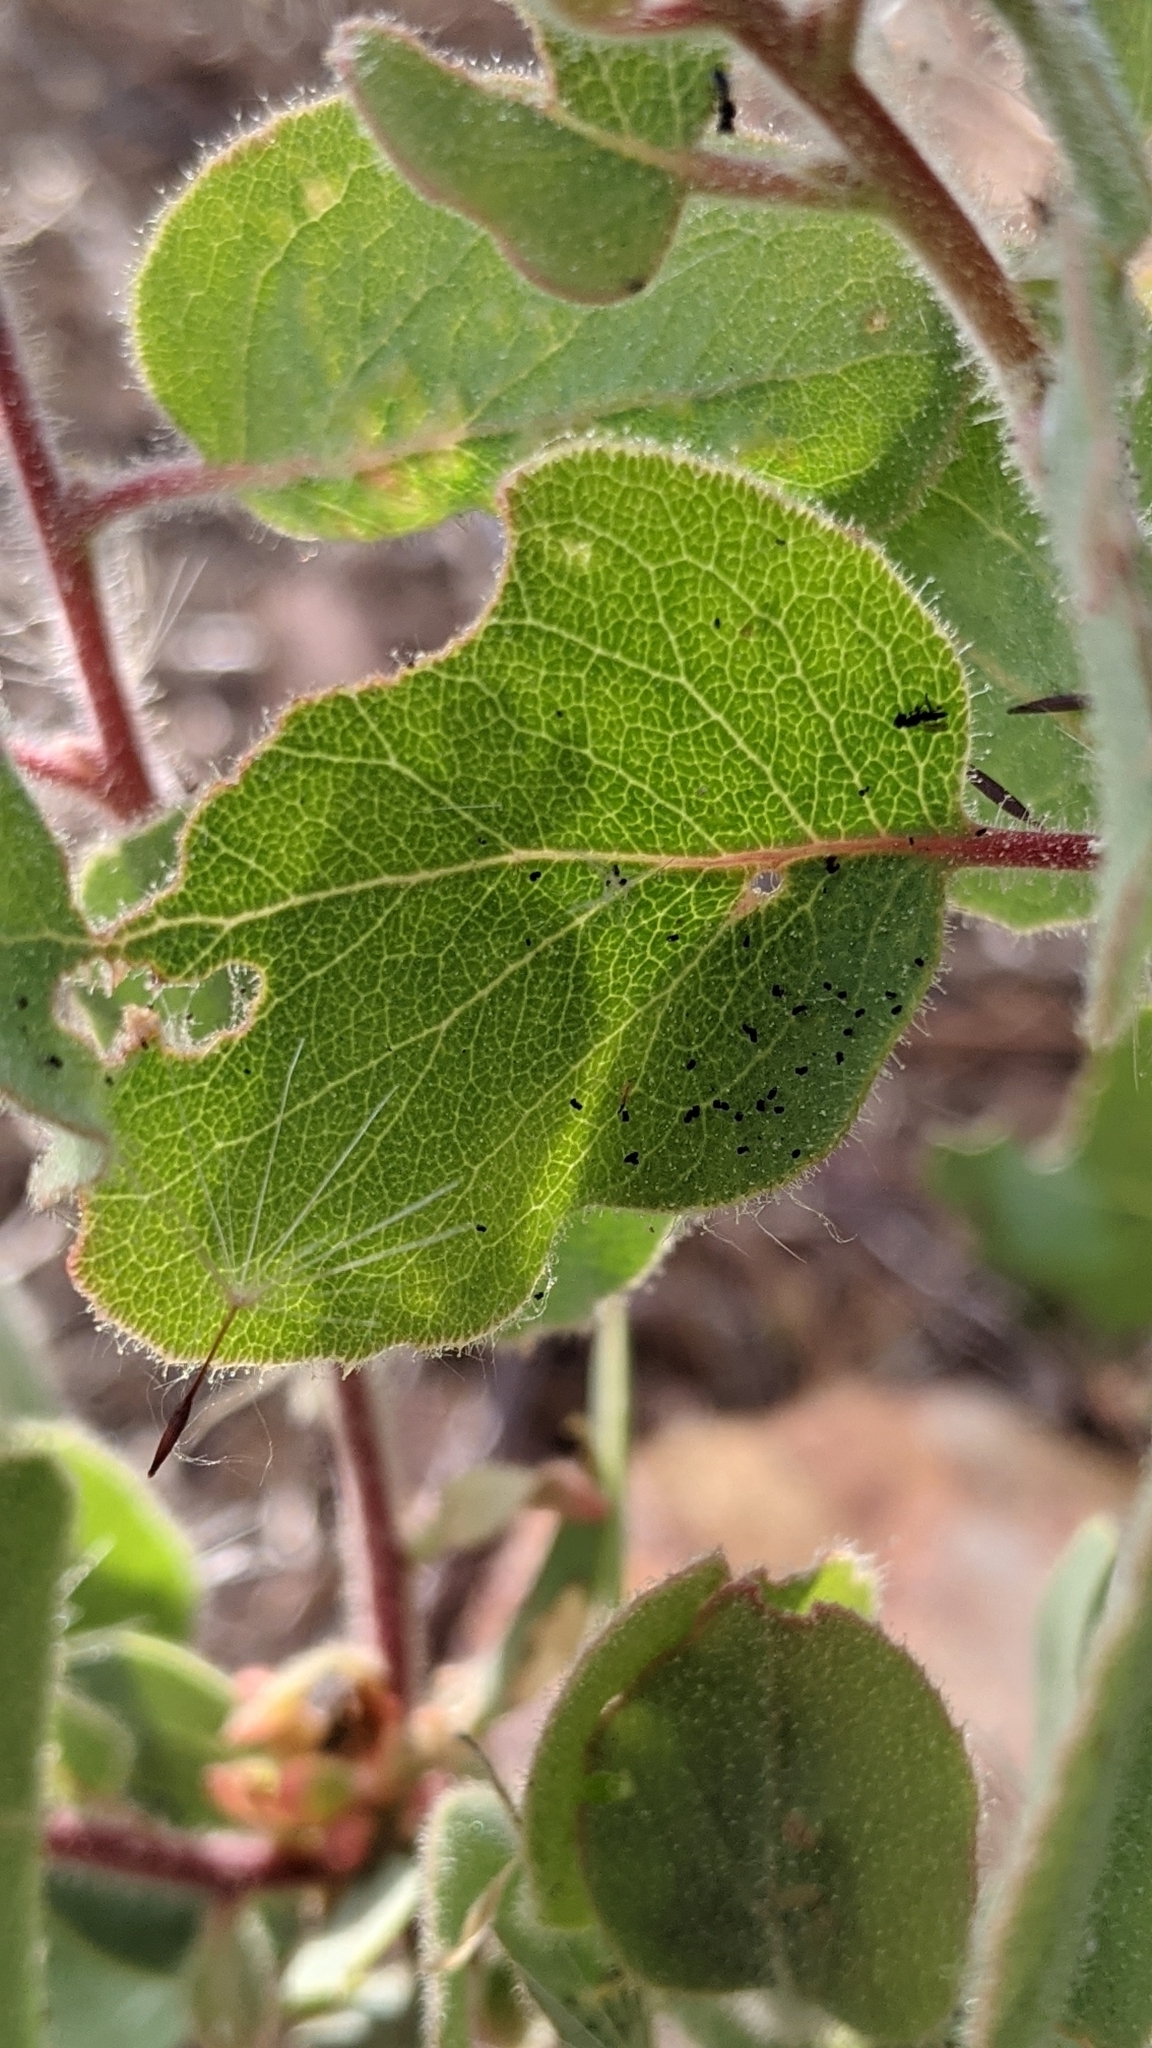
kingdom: Plantae
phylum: Tracheophyta
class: Magnoliopsida
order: Ericales
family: Ericaceae
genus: Arctostaphylos
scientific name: Arctostaphylos viscida
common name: White-leaf manzanita
